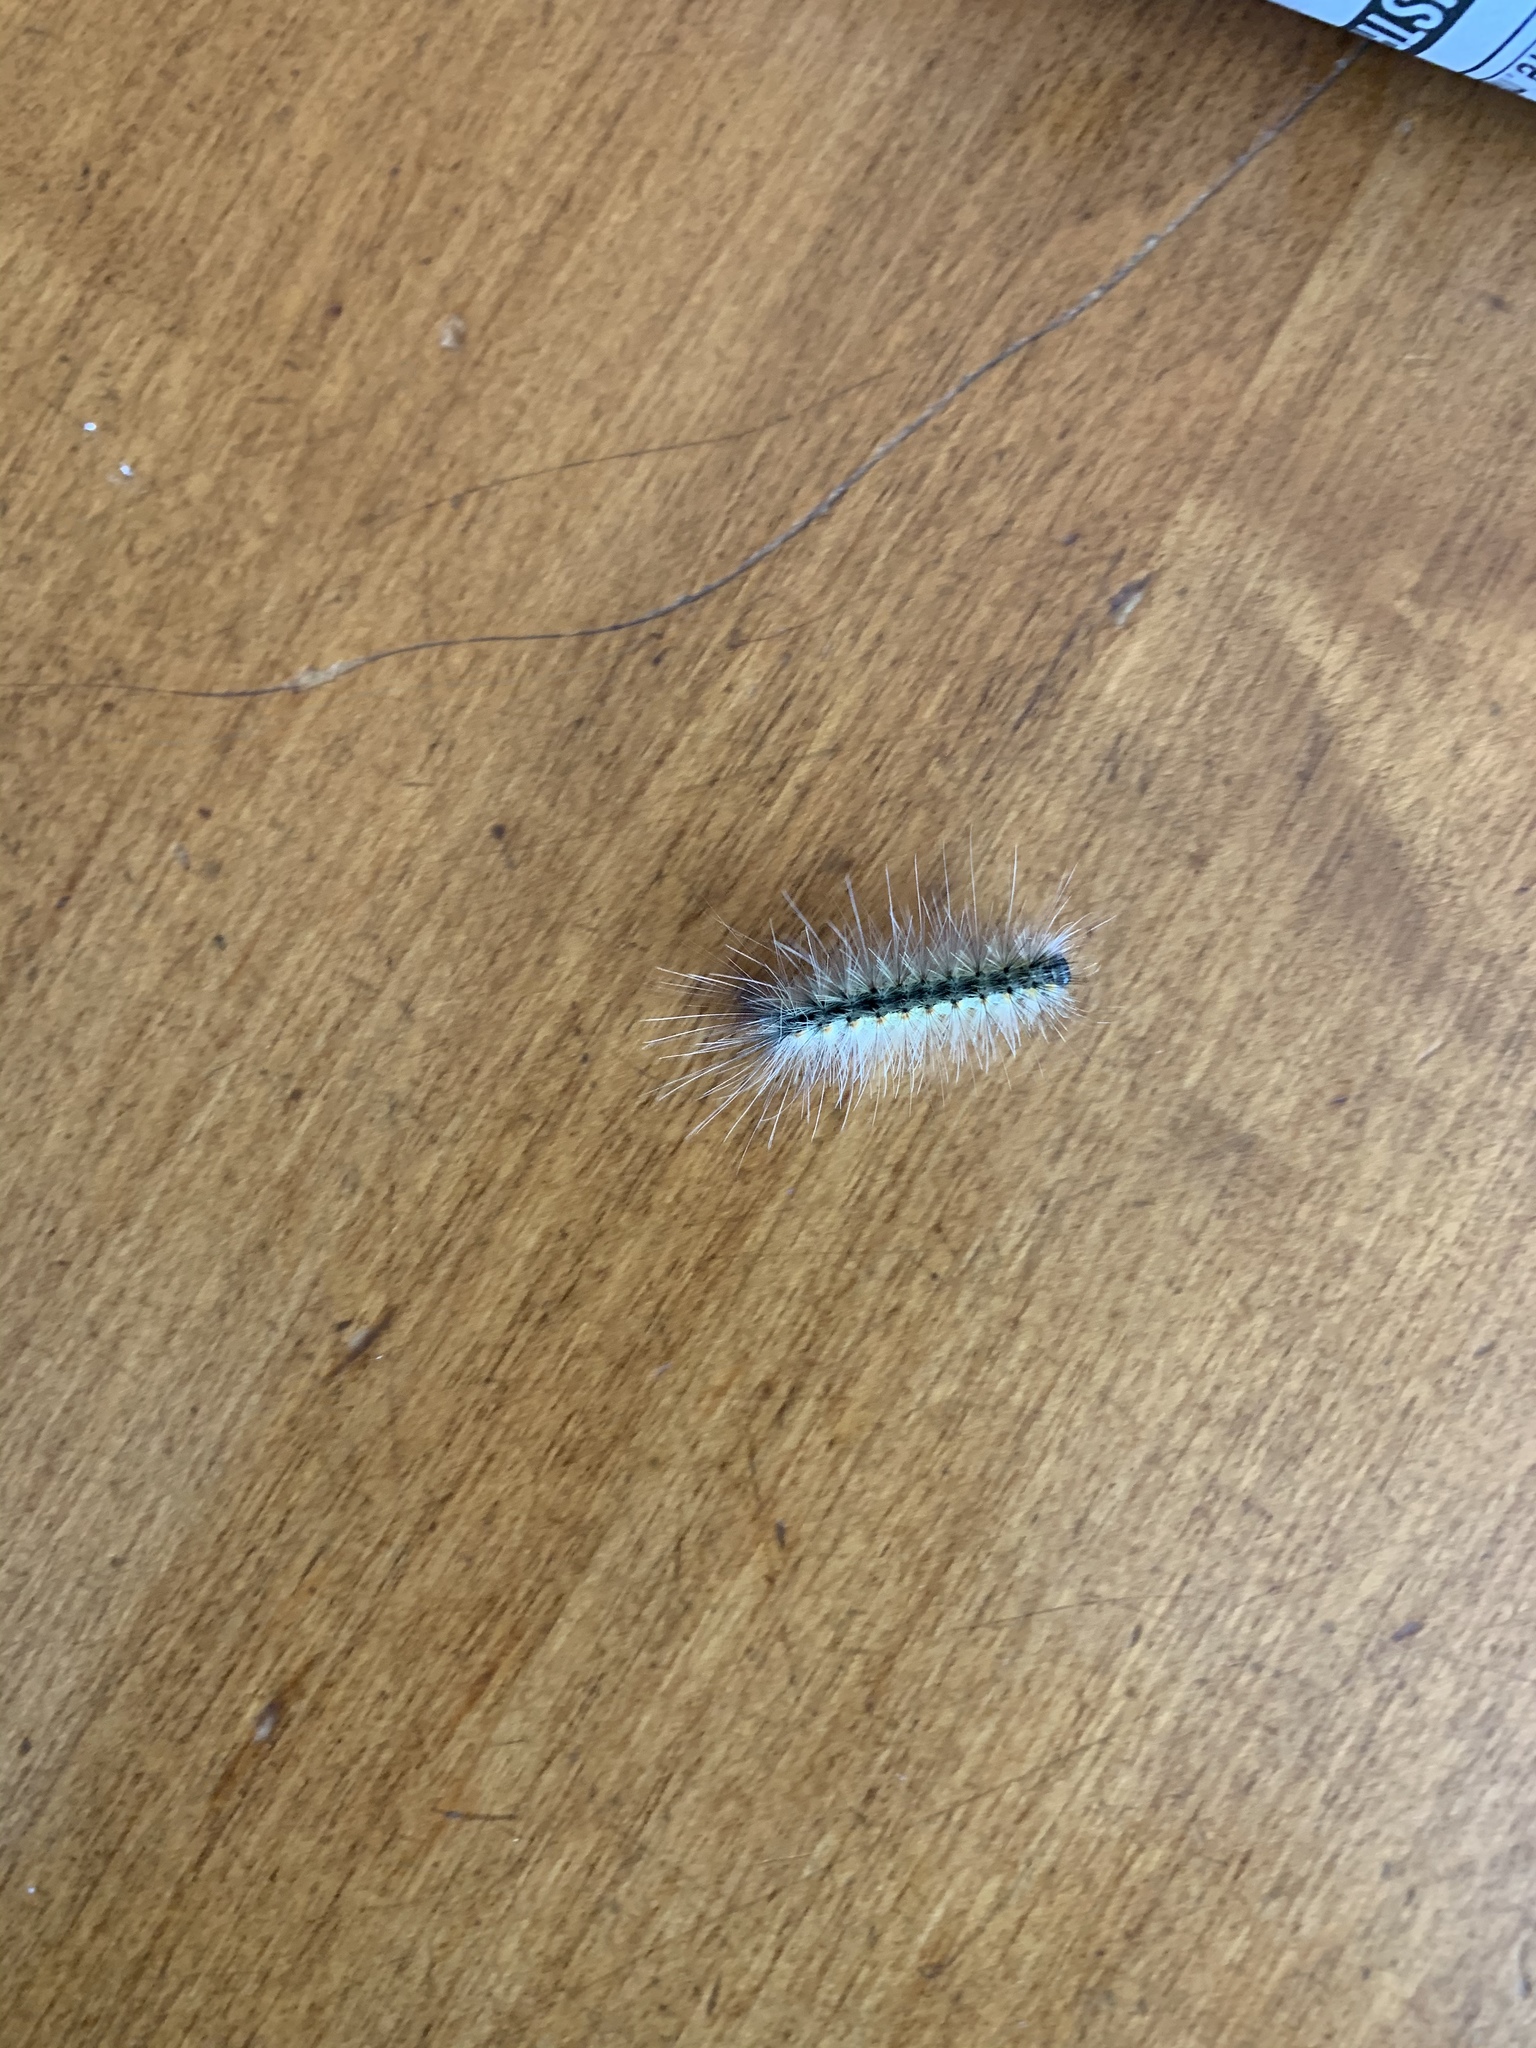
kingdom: Animalia
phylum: Arthropoda
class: Insecta
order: Lepidoptera
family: Erebidae
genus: Hyphantria
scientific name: Hyphantria cunea
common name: American white moth
